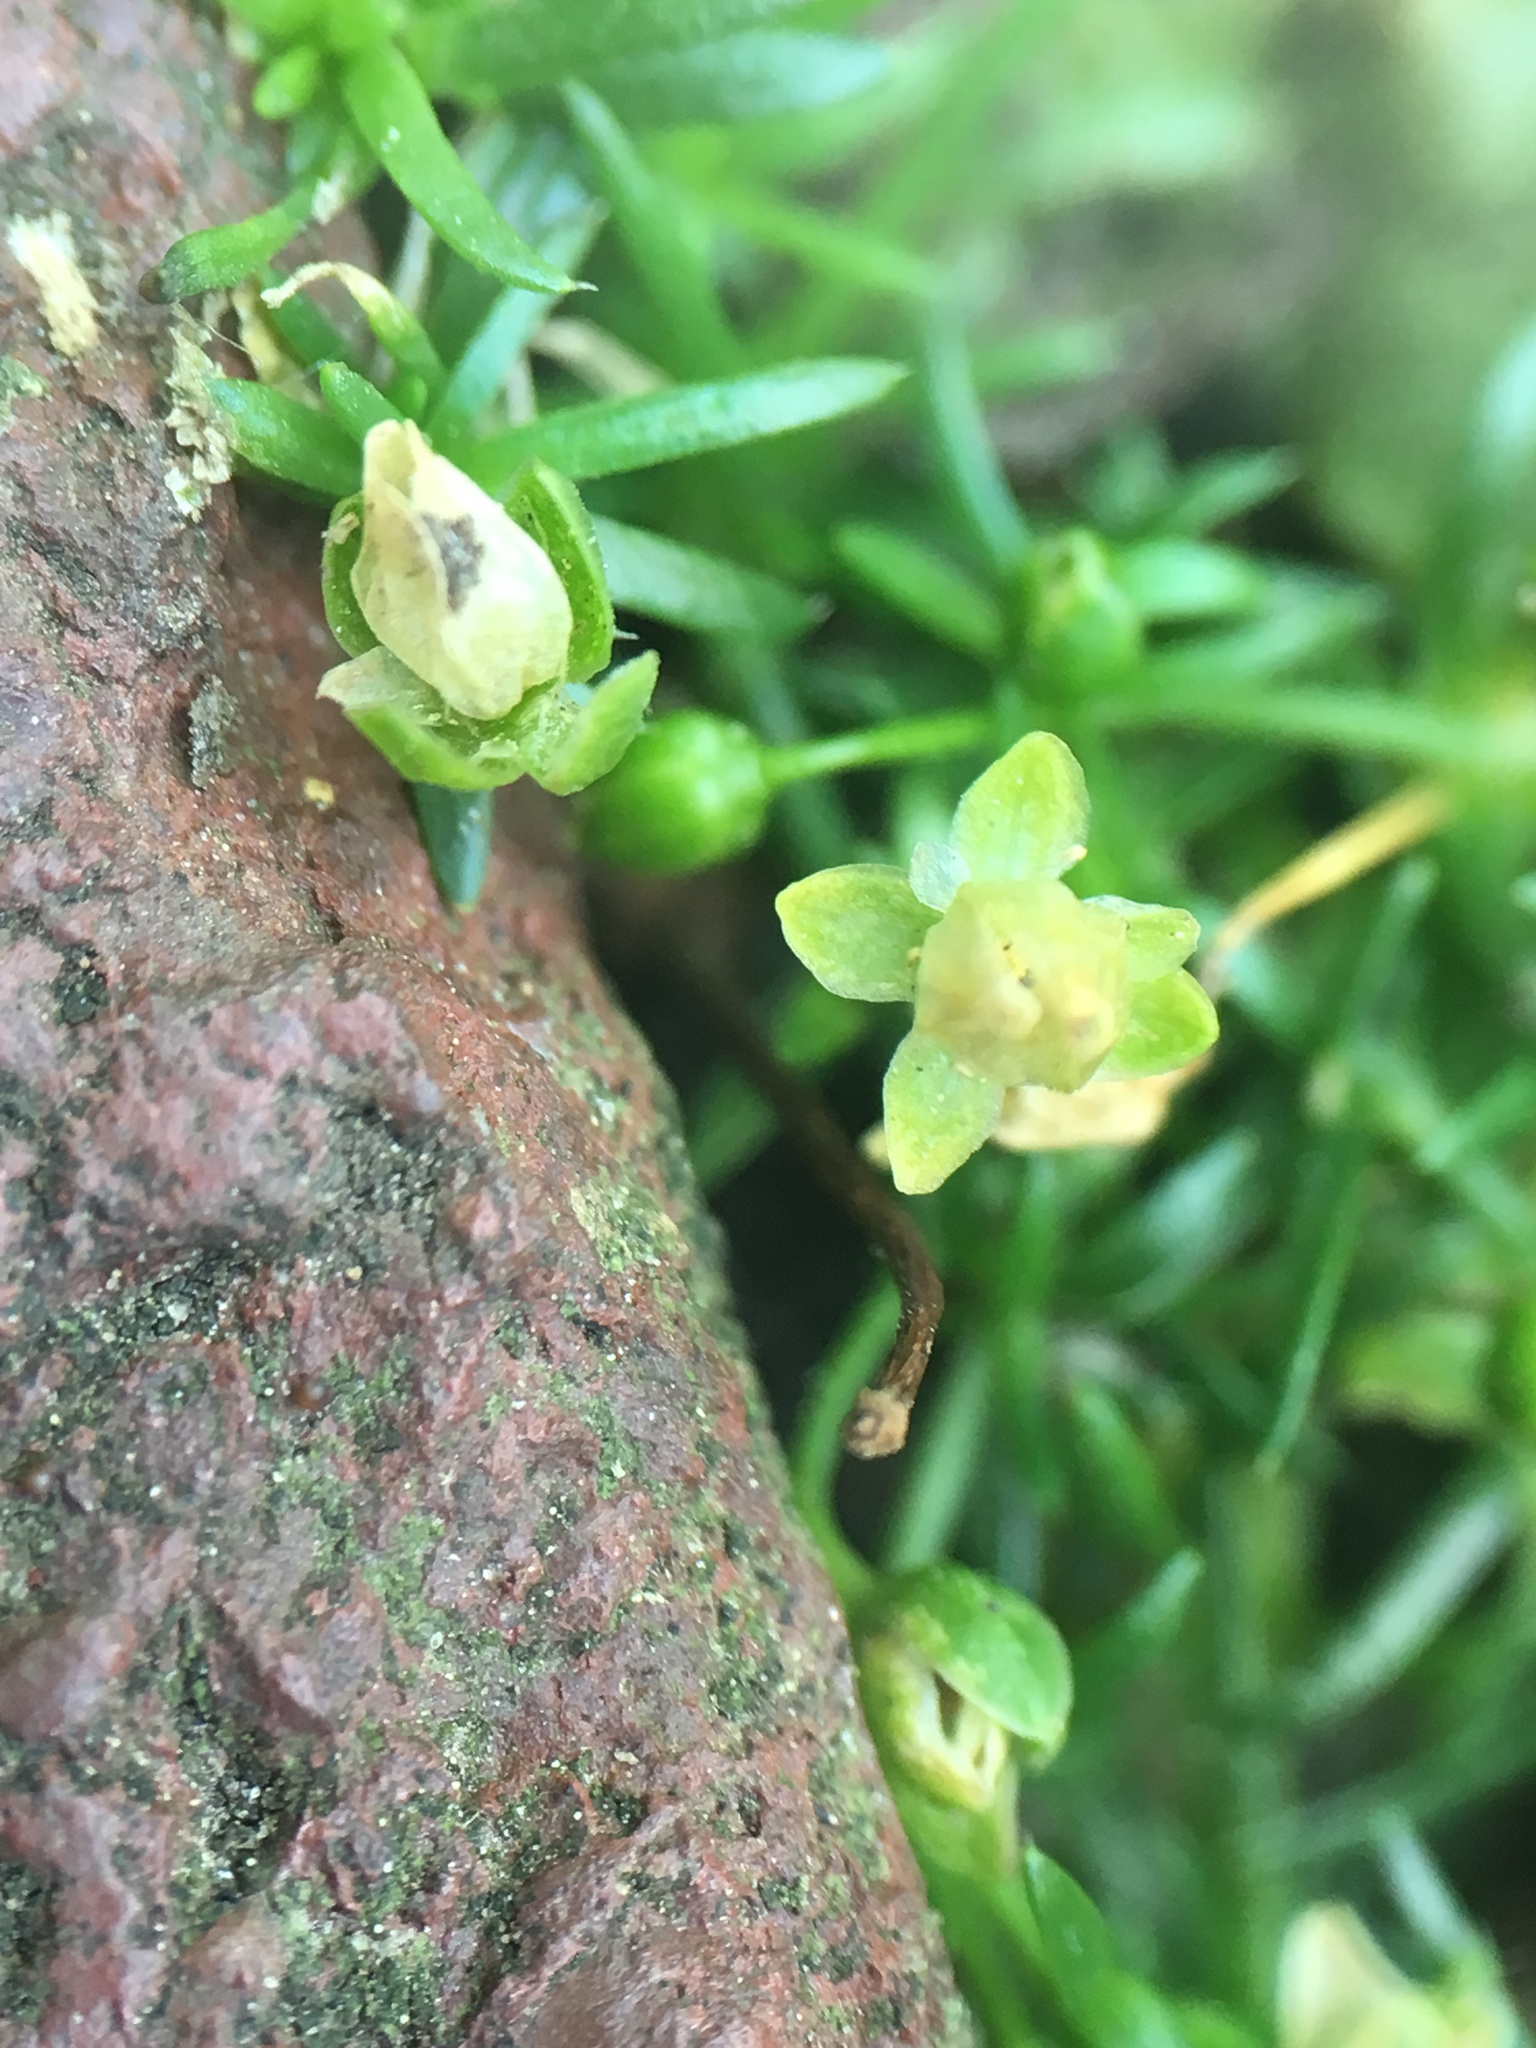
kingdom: Plantae
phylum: Tracheophyta
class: Magnoliopsida
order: Caryophyllales
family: Caryophyllaceae
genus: Sagina
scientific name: Sagina procumbens
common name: Procumbent pearlwort
